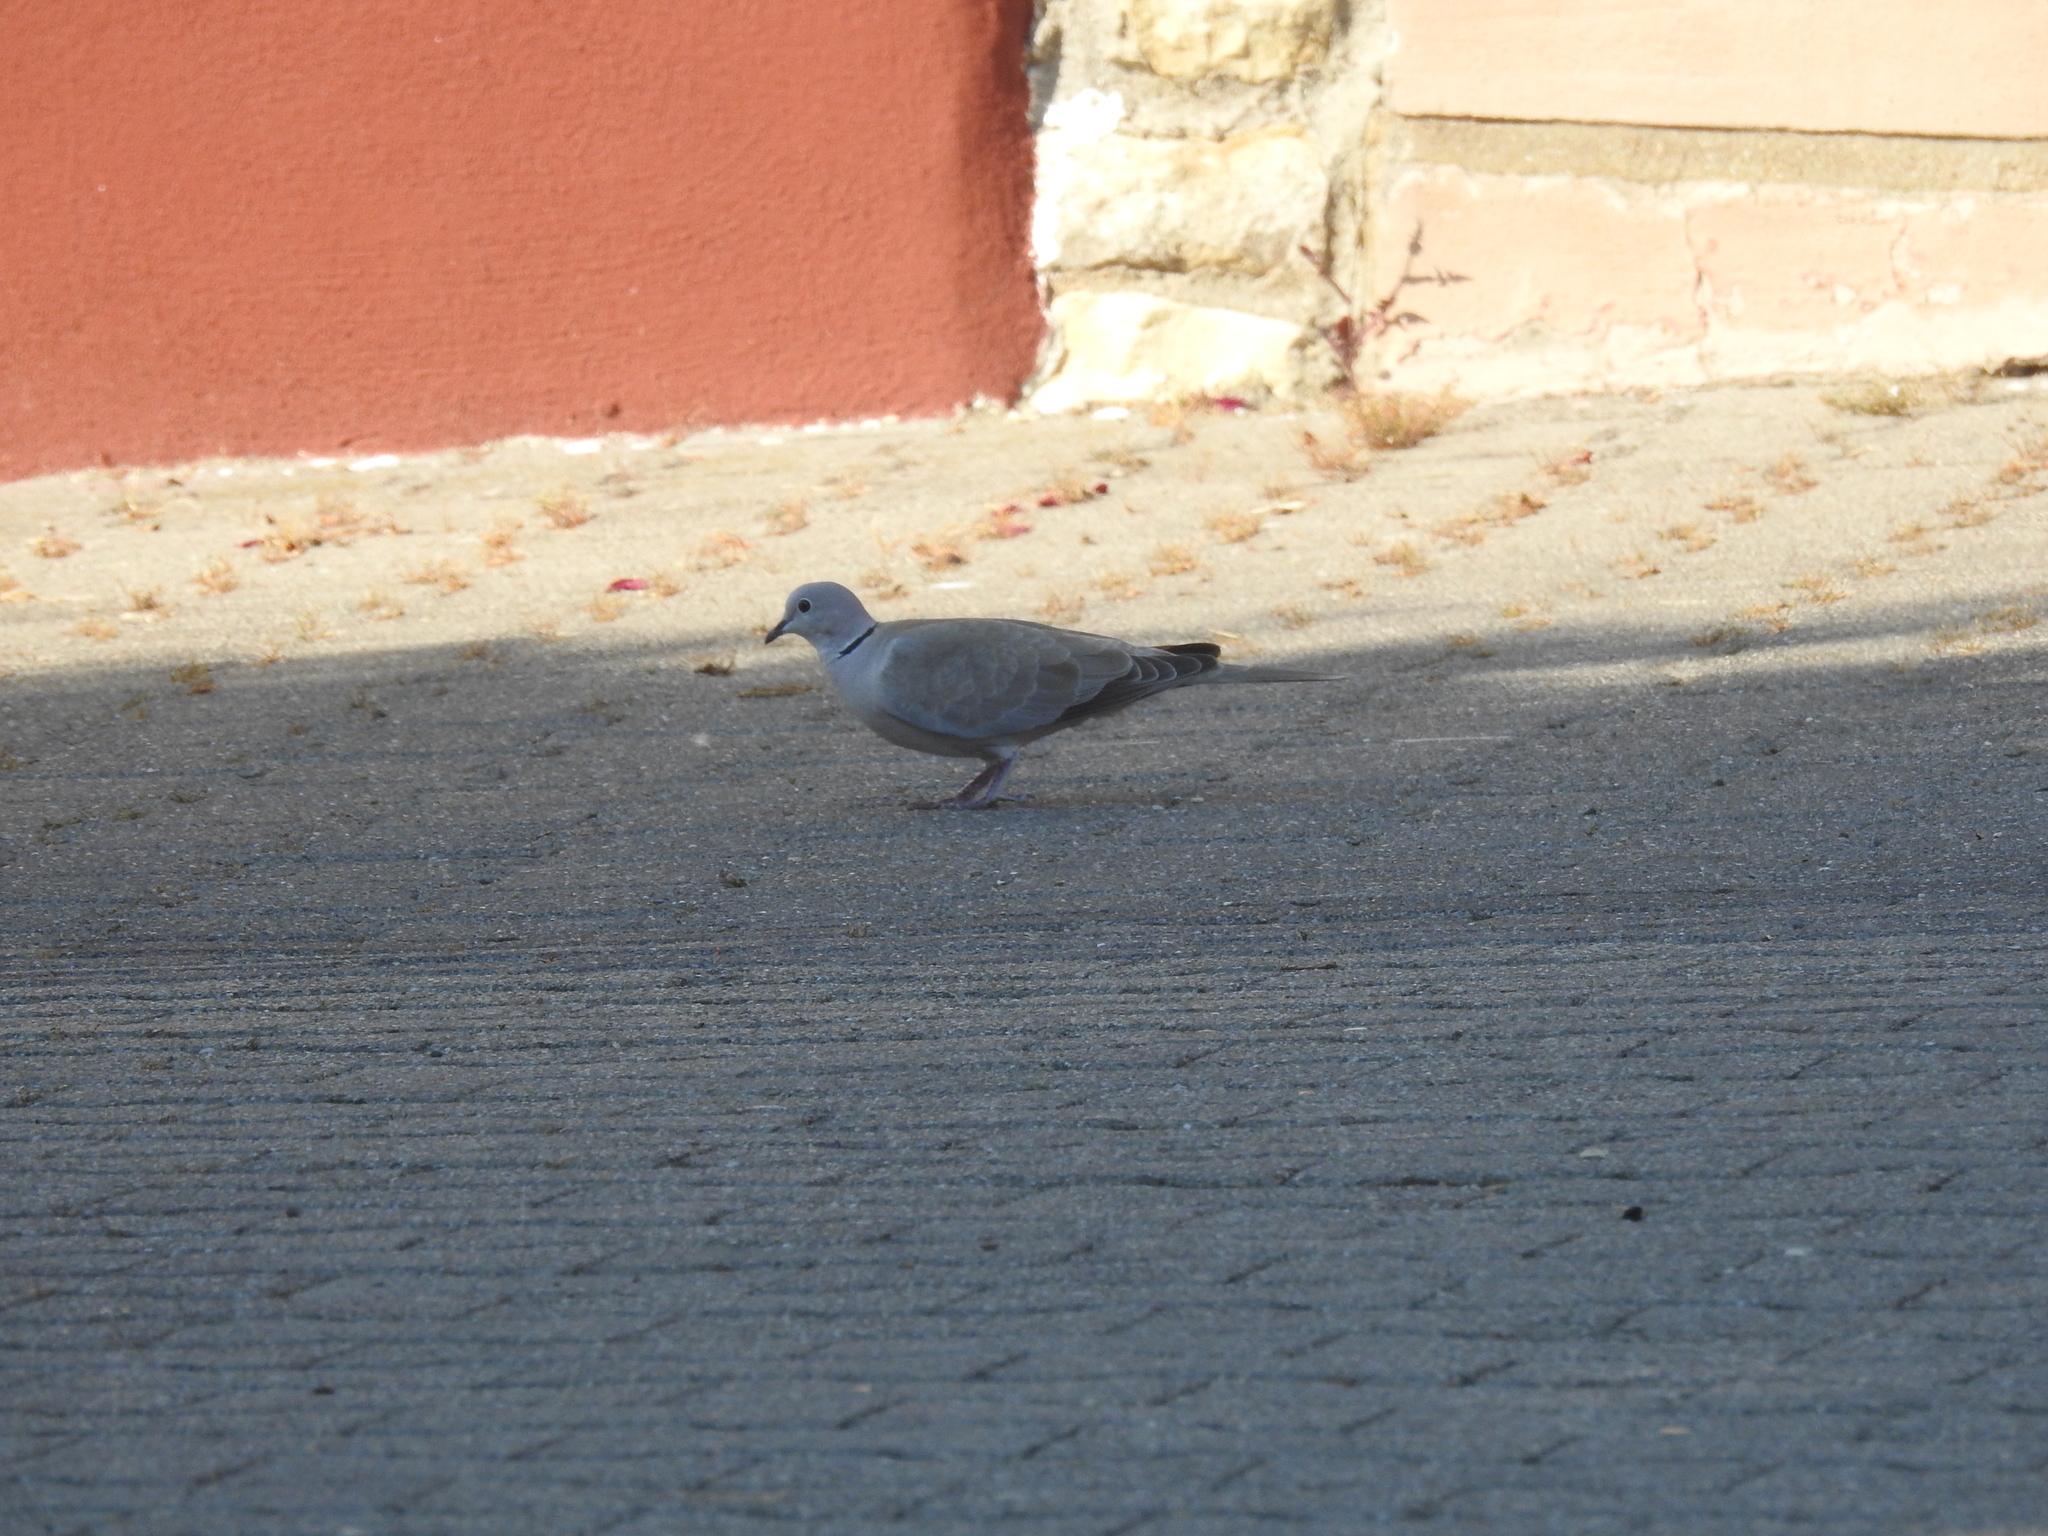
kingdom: Animalia
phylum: Chordata
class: Aves
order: Columbiformes
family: Columbidae
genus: Streptopelia
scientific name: Streptopelia decaocto
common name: Eurasian collared dove
